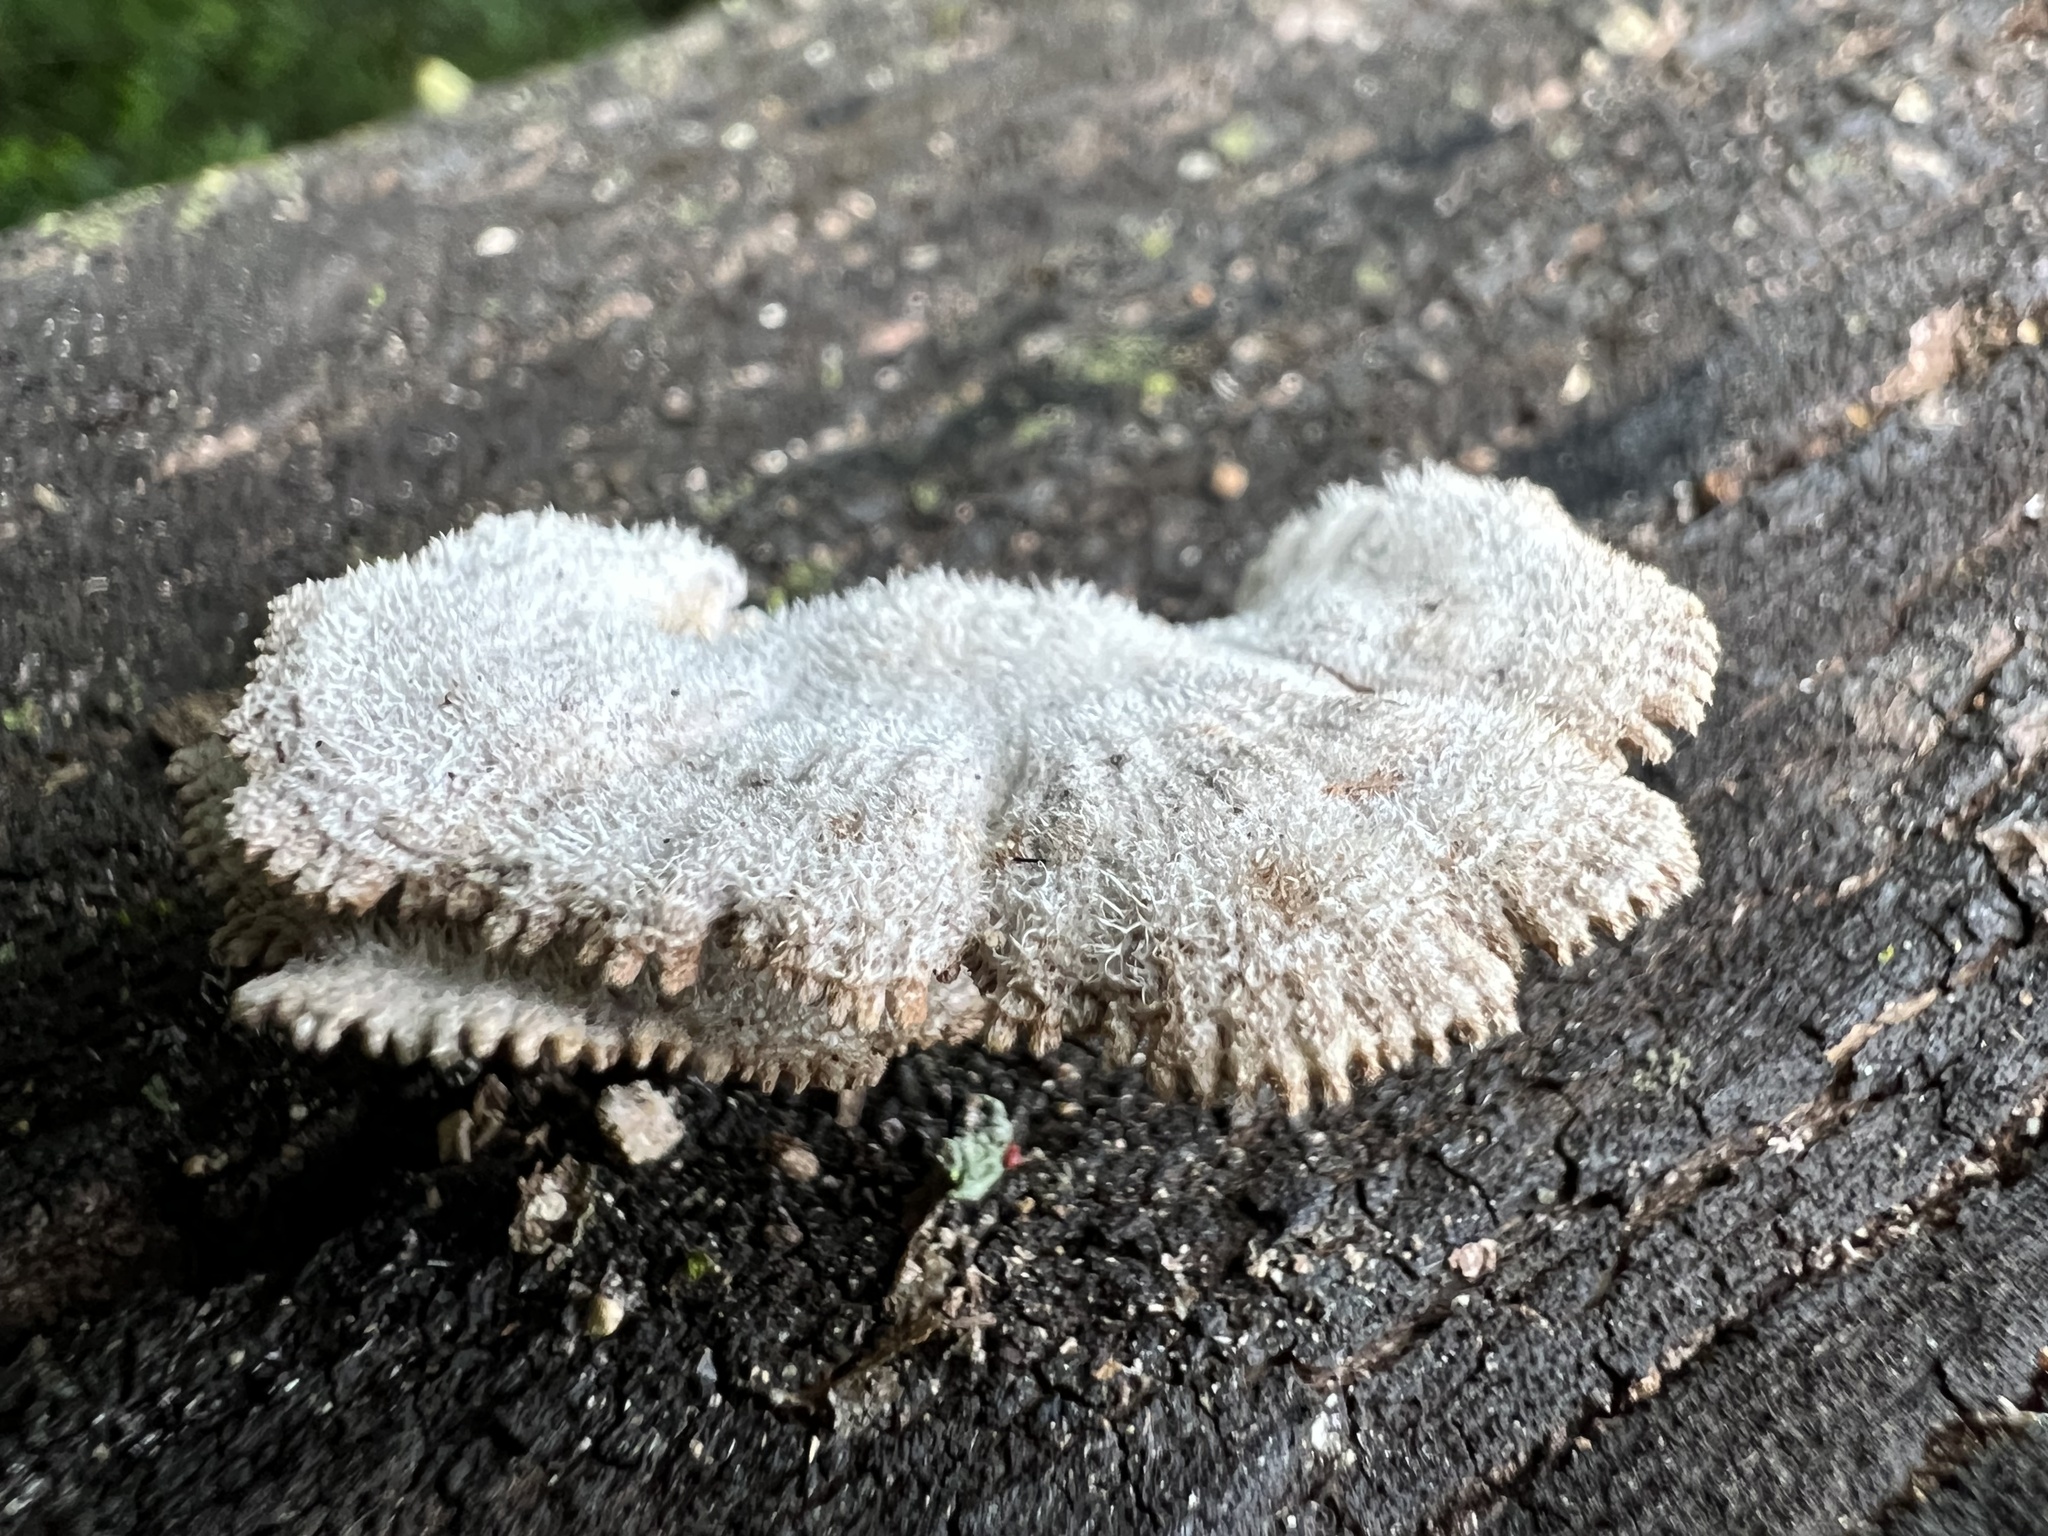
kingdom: Fungi
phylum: Basidiomycota
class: Agaricomycetes
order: Agaricales
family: Schizophyllaceae
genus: Schizophyllum
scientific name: Schizophyllum commune
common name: Common porecrust
